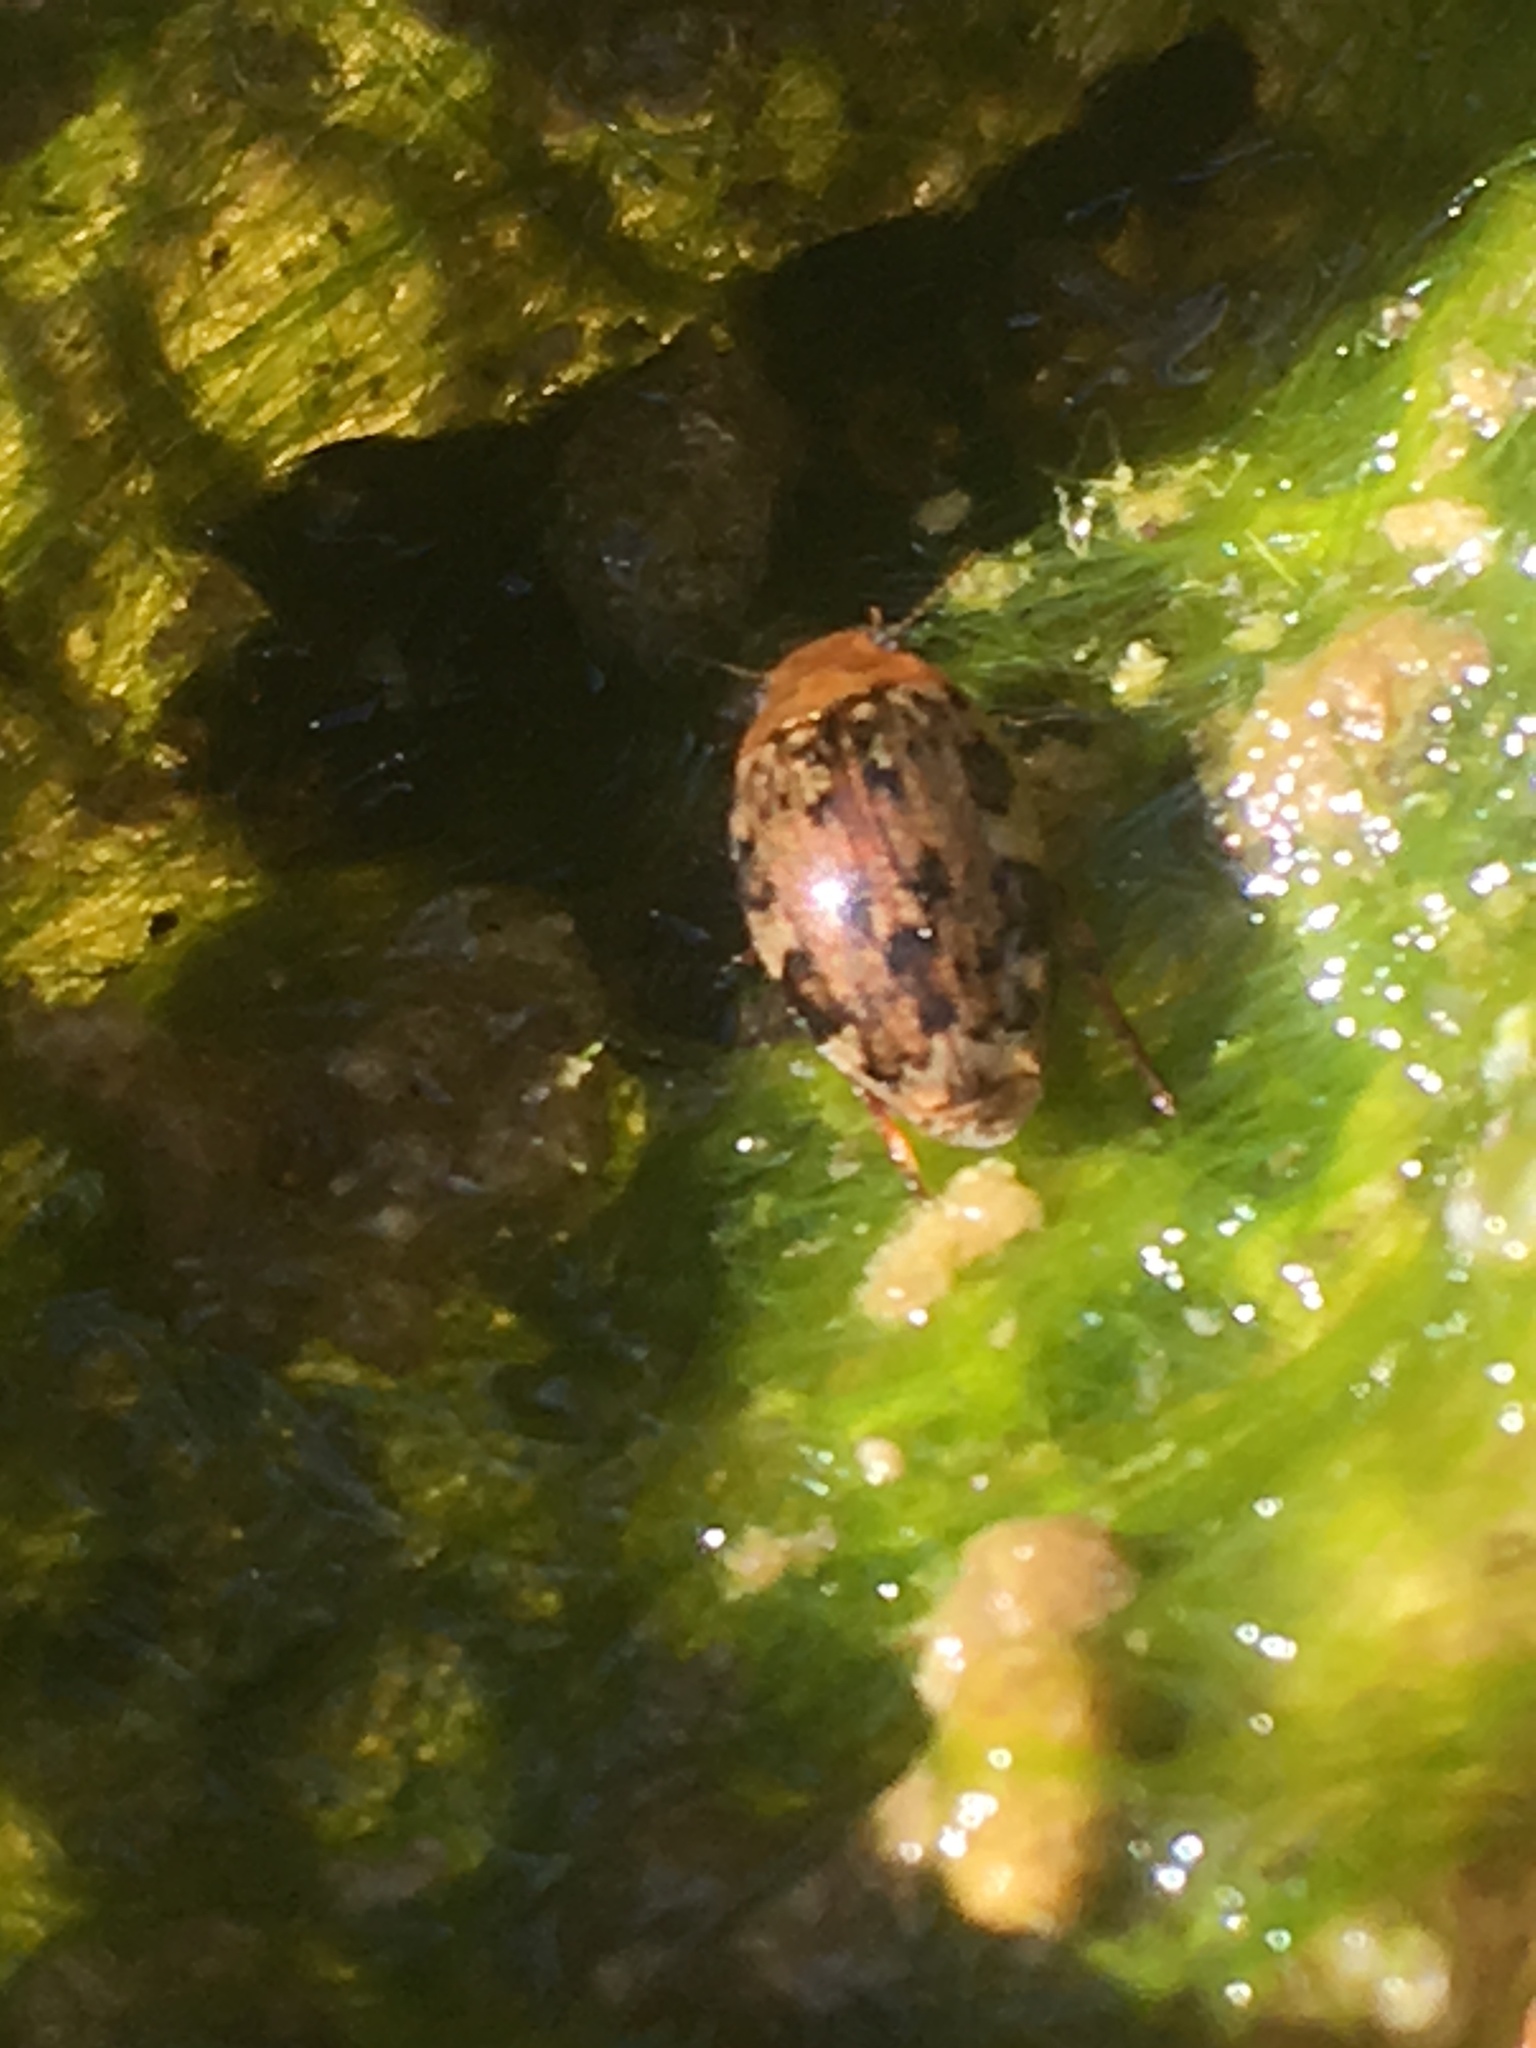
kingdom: Animalia
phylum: Arthropoda
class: Insecta
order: Coleoptera
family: Dytiscidae
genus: Laccophilus
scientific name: Laccophilus maculosus
